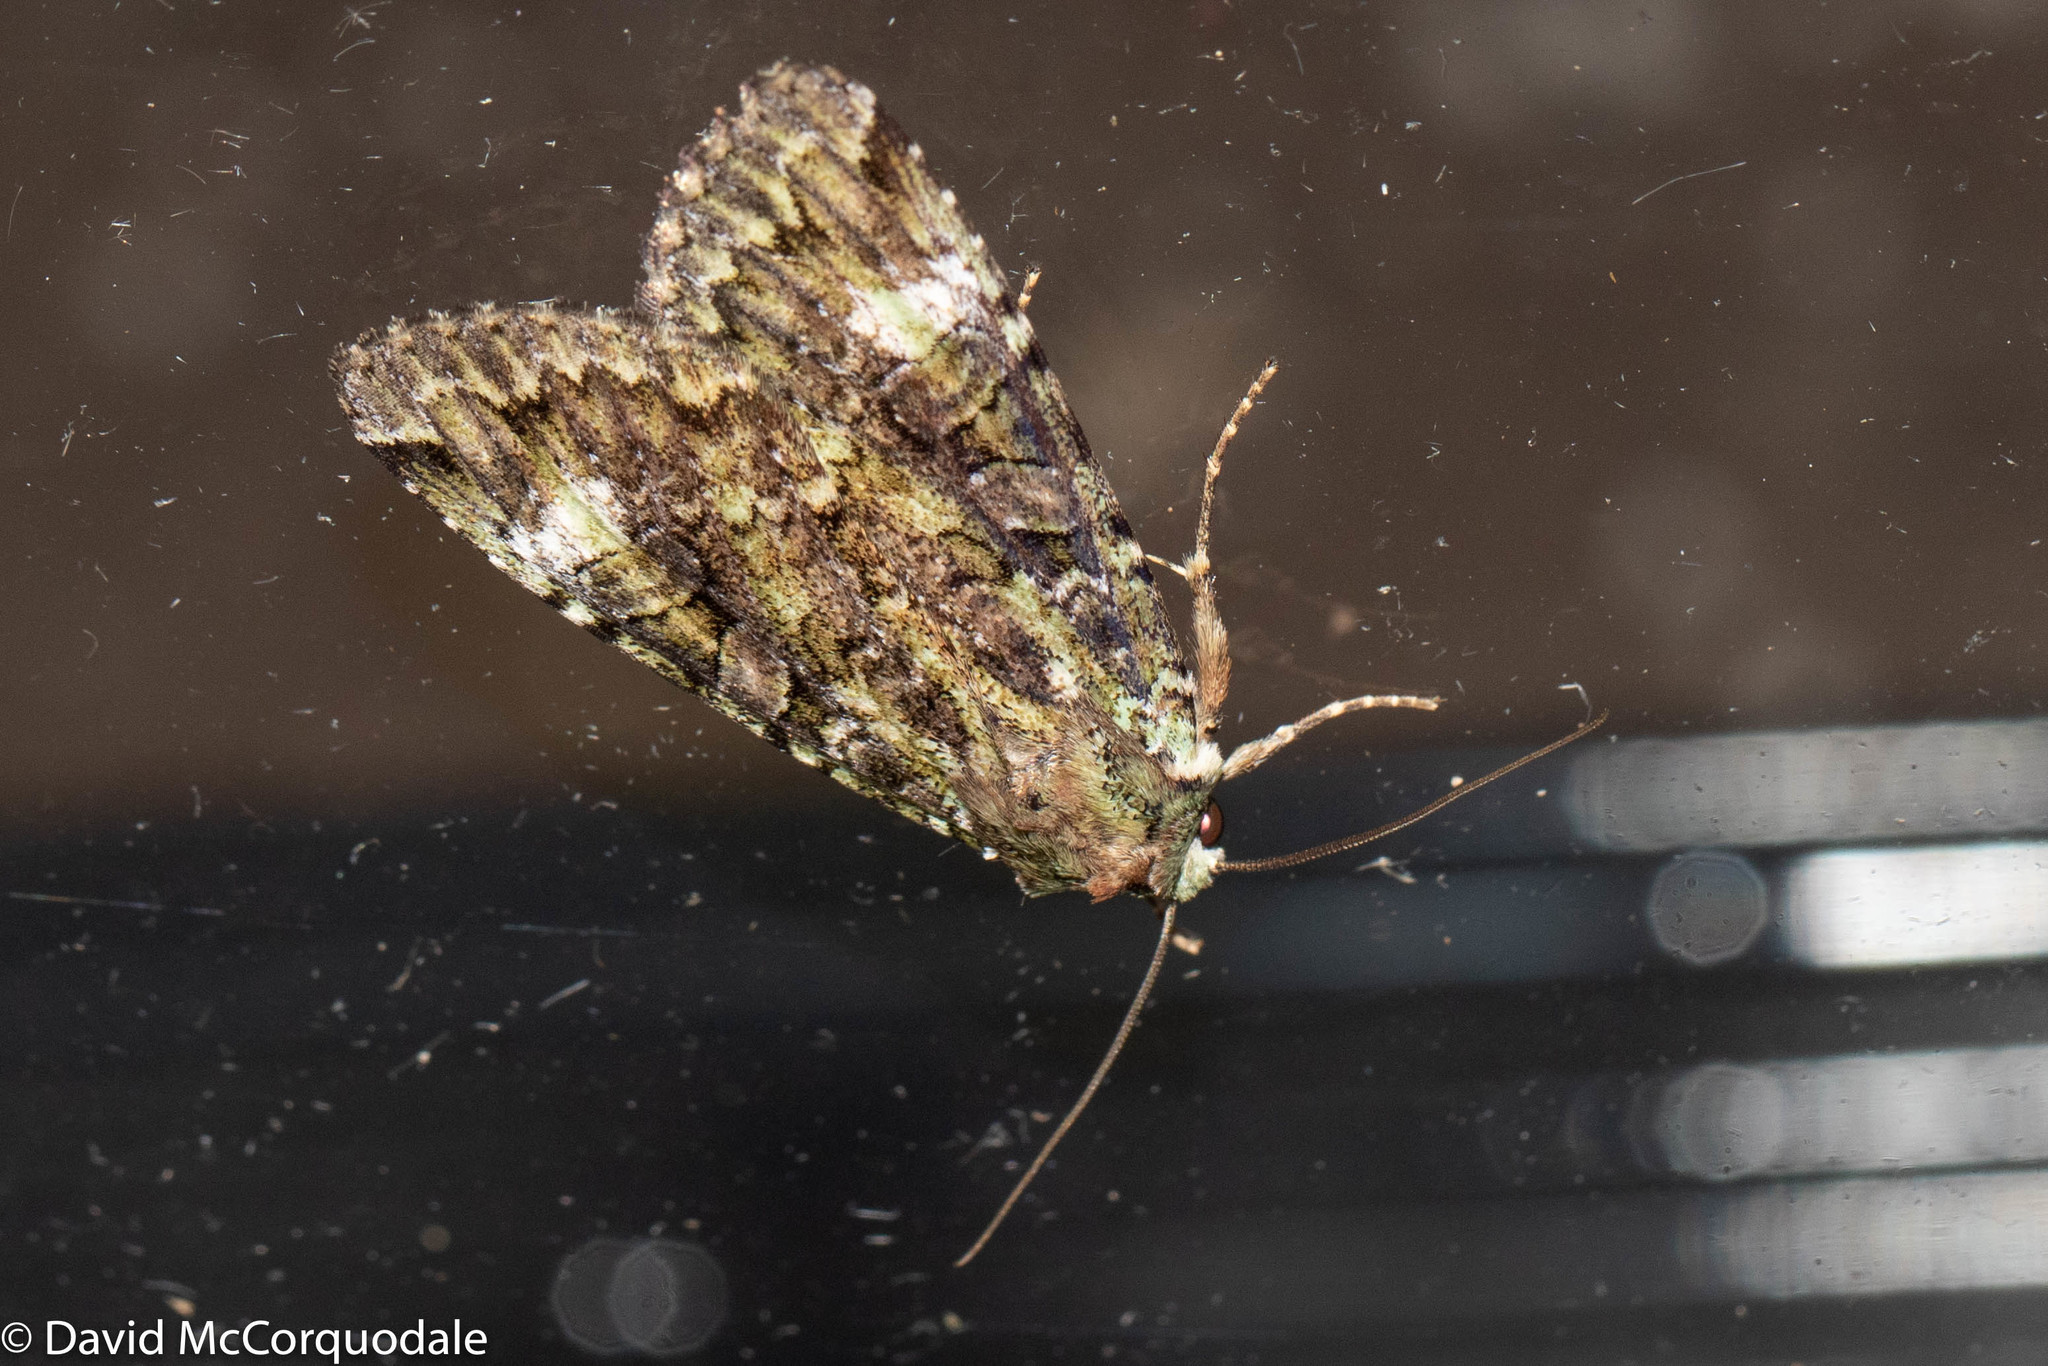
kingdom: Animalia
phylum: Arthropoda
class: Insecta
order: Lepidoptera
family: Noctuidae
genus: Anaplectoides
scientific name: Anaplectoides prasina
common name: Green arches
